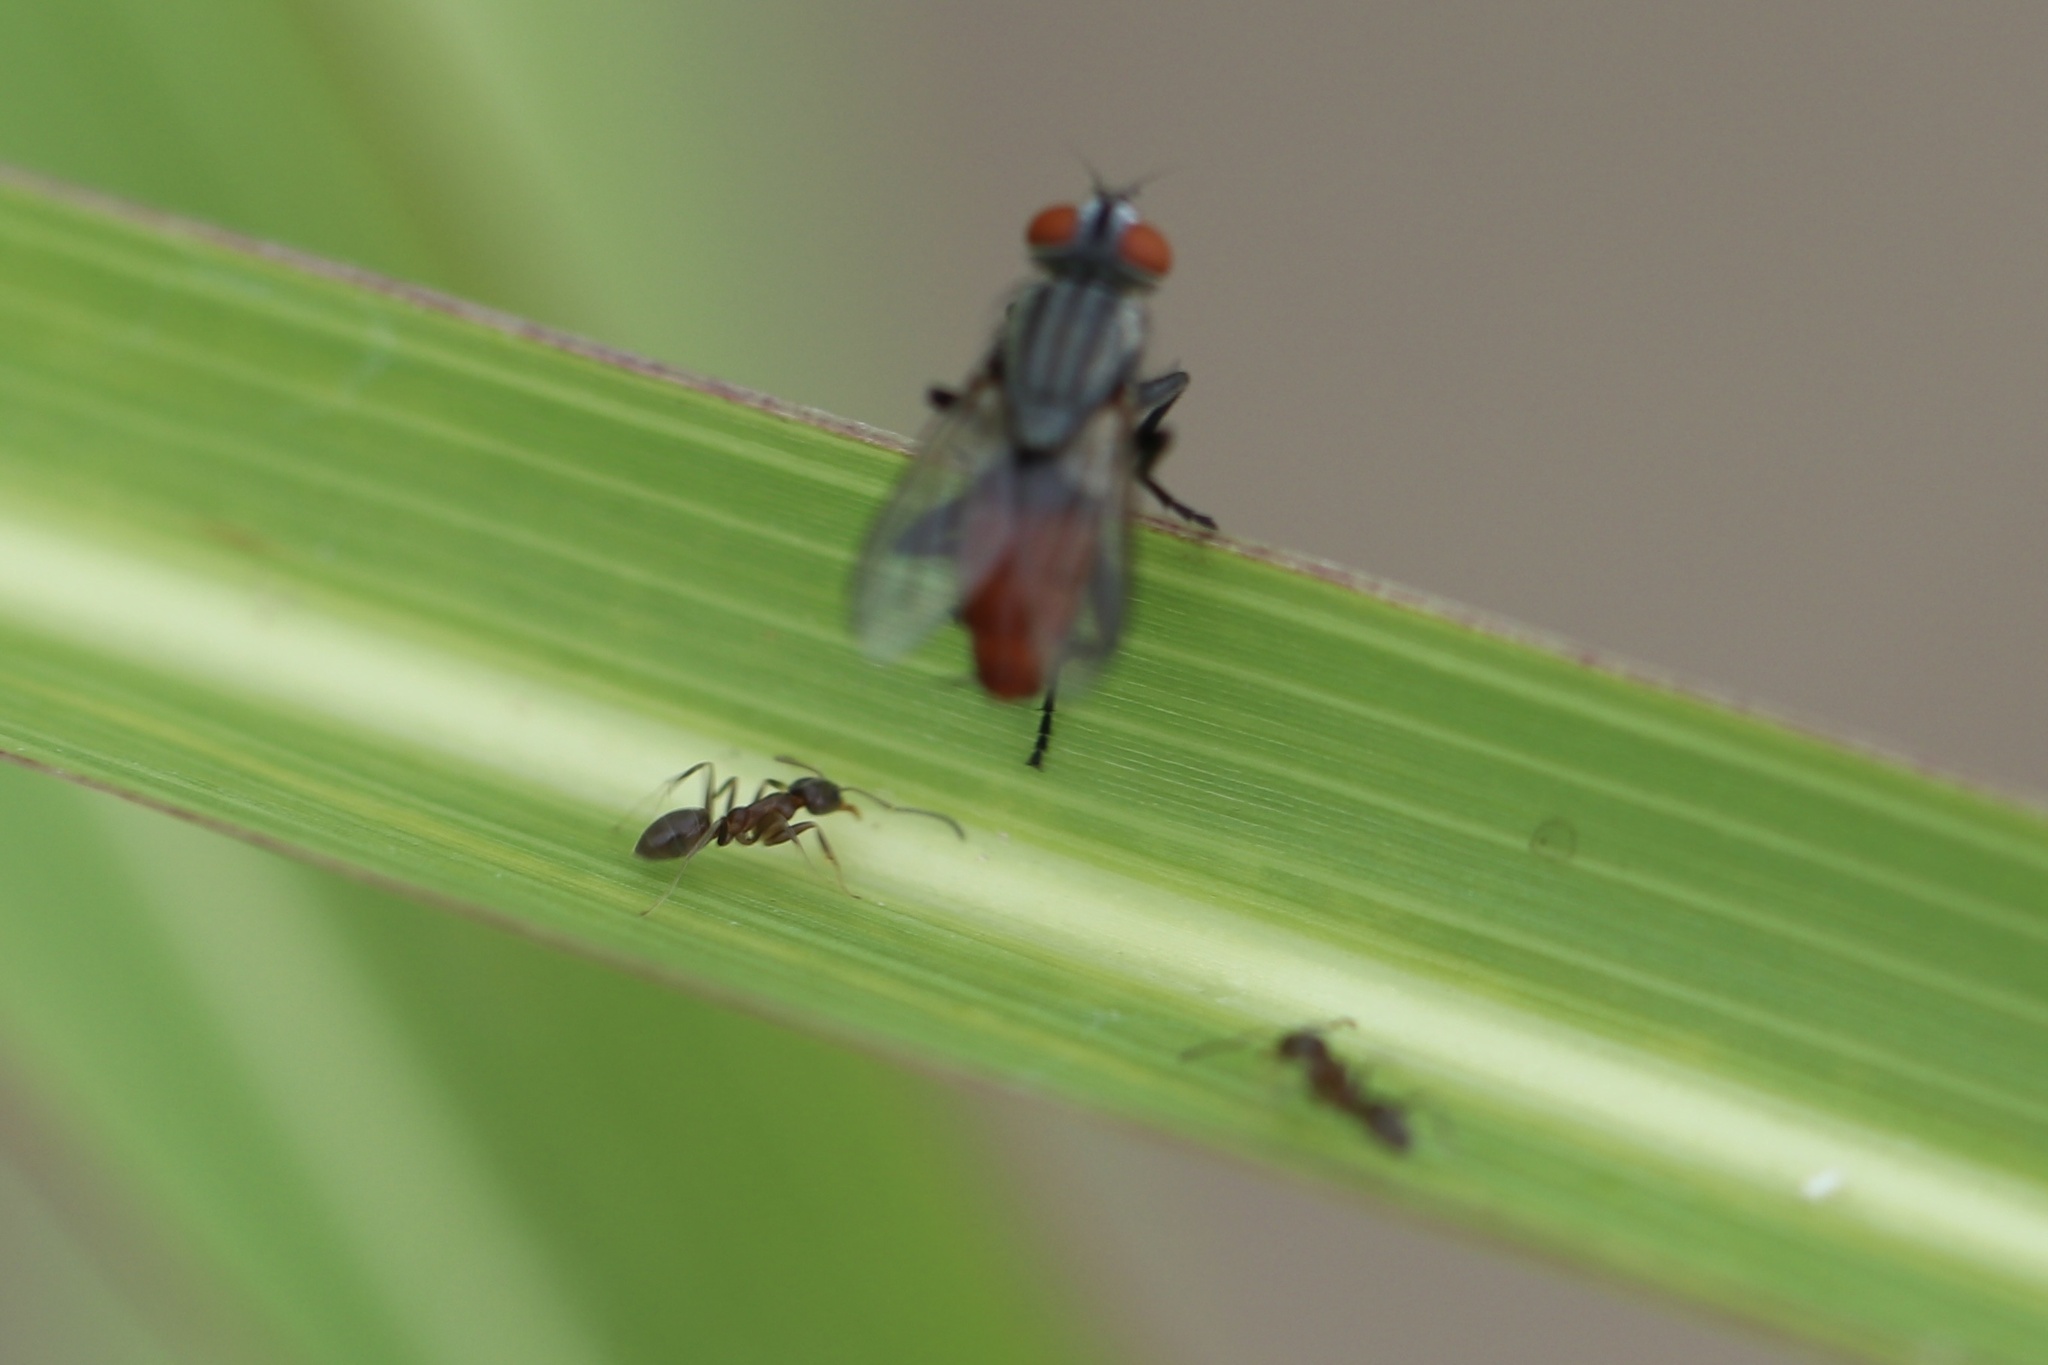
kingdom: Animalia
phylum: Arthropoda
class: Insecta
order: Hymenoptera
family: Formicidae
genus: Linepithema
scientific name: Linepithema humile
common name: Argentine ant
